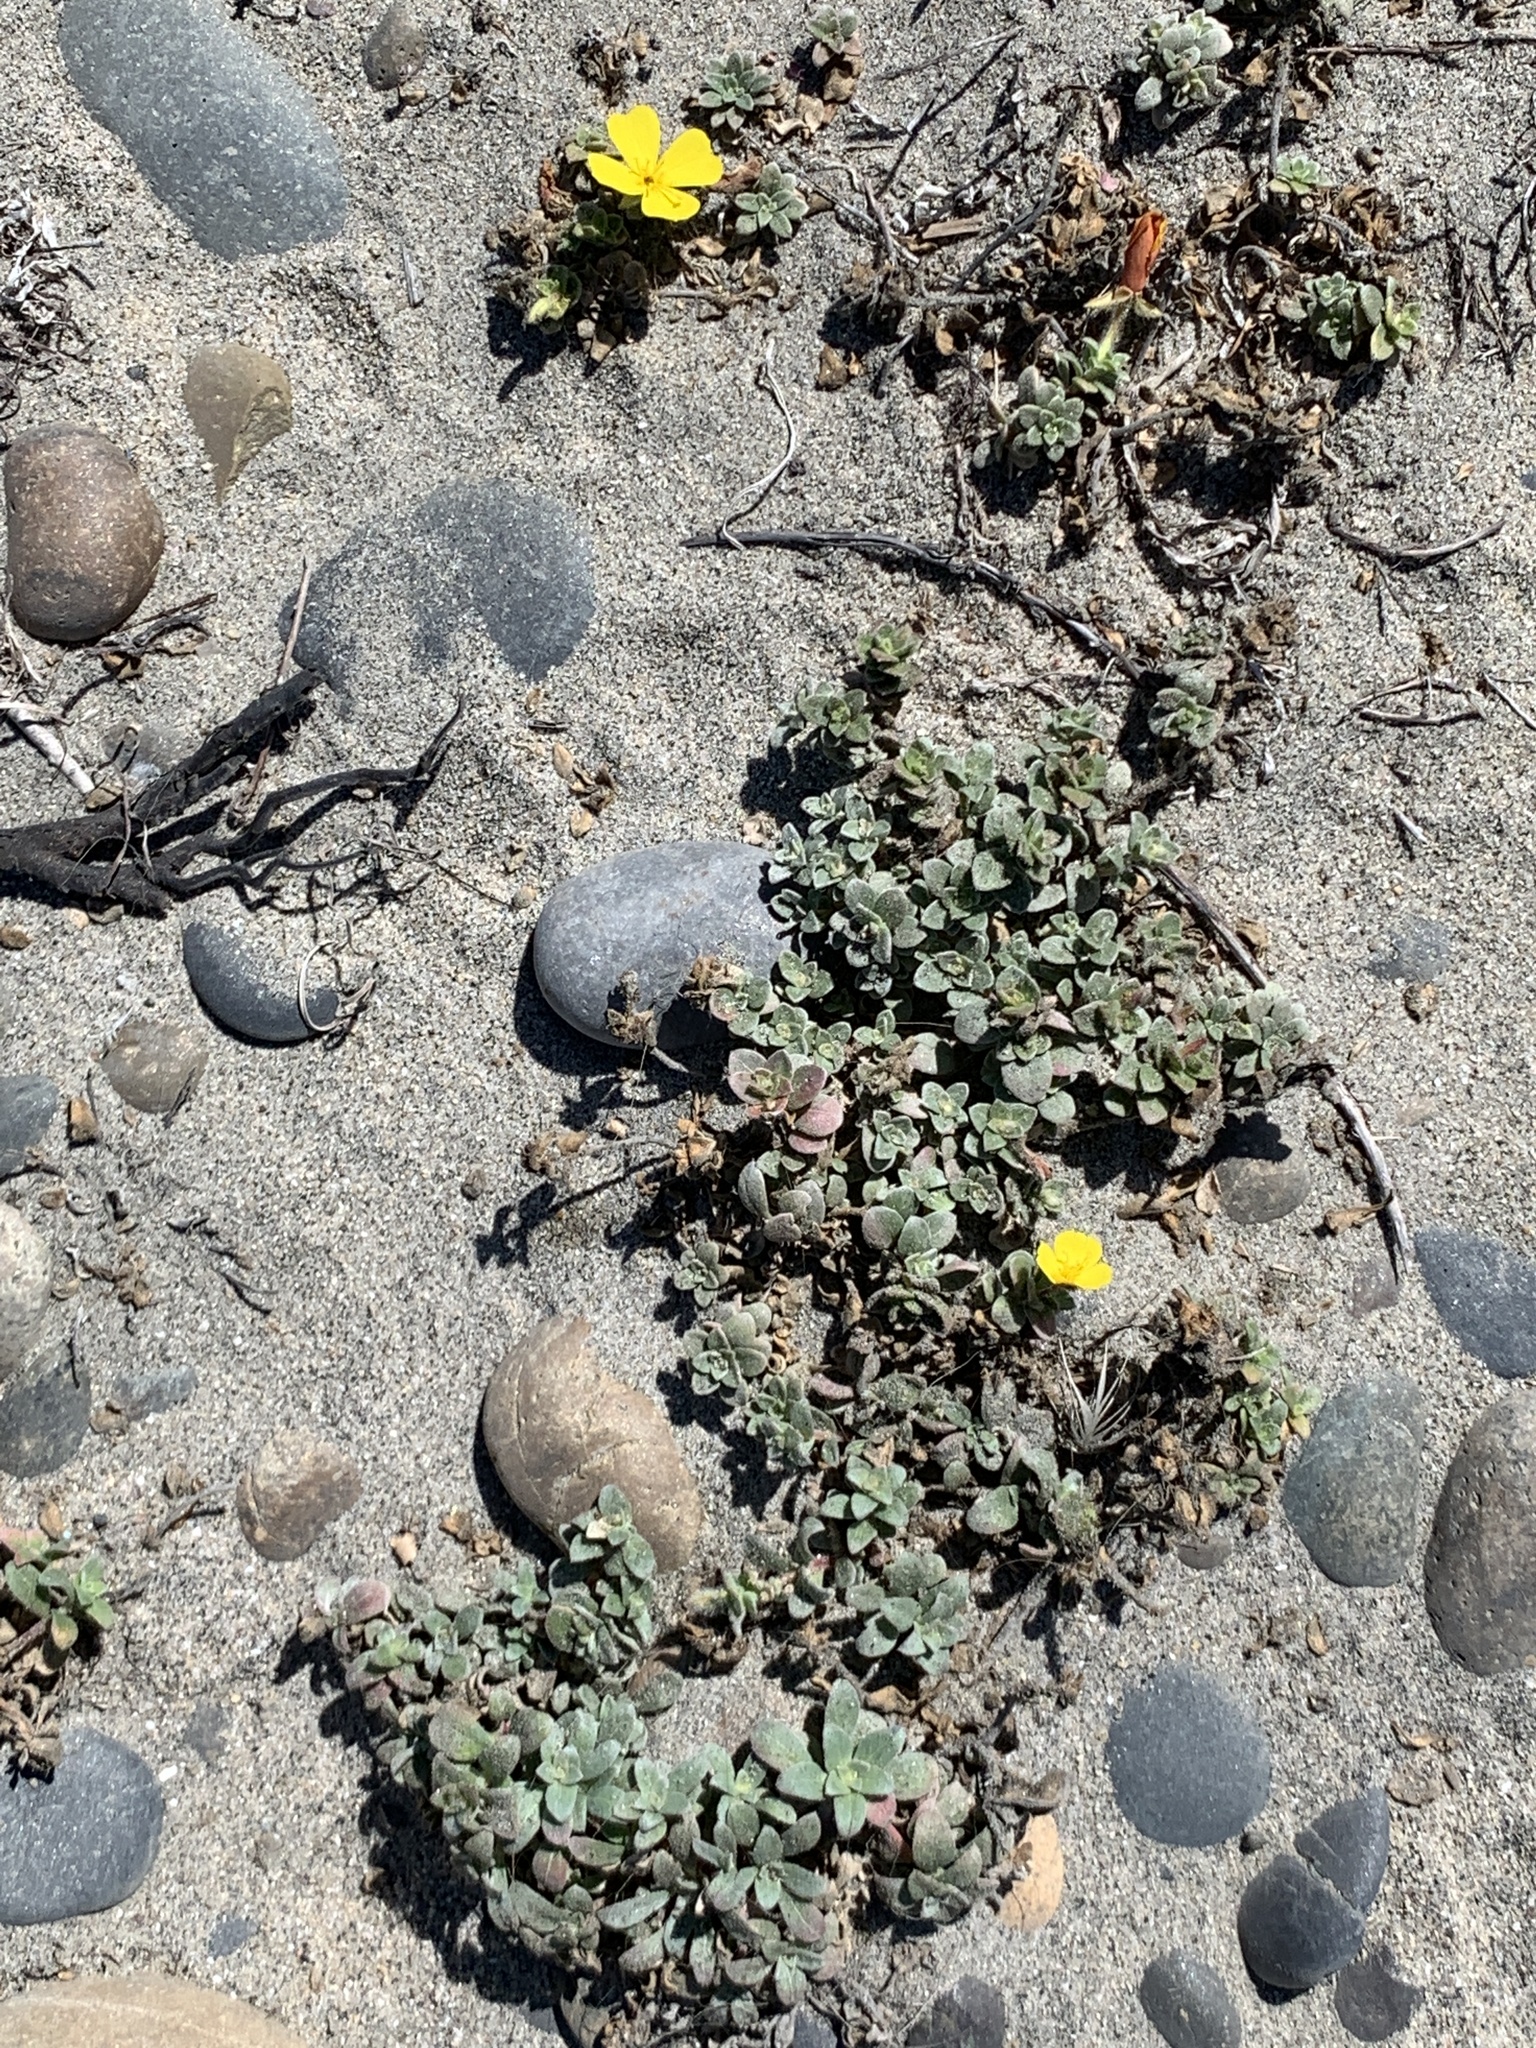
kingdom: Plantae
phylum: Tracheophyta
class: Magnoliopsida
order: Myrtales
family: Onagraceae
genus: Camissoniopsis
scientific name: Camissoniopsis cheiranthifolia
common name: Beach suncup
